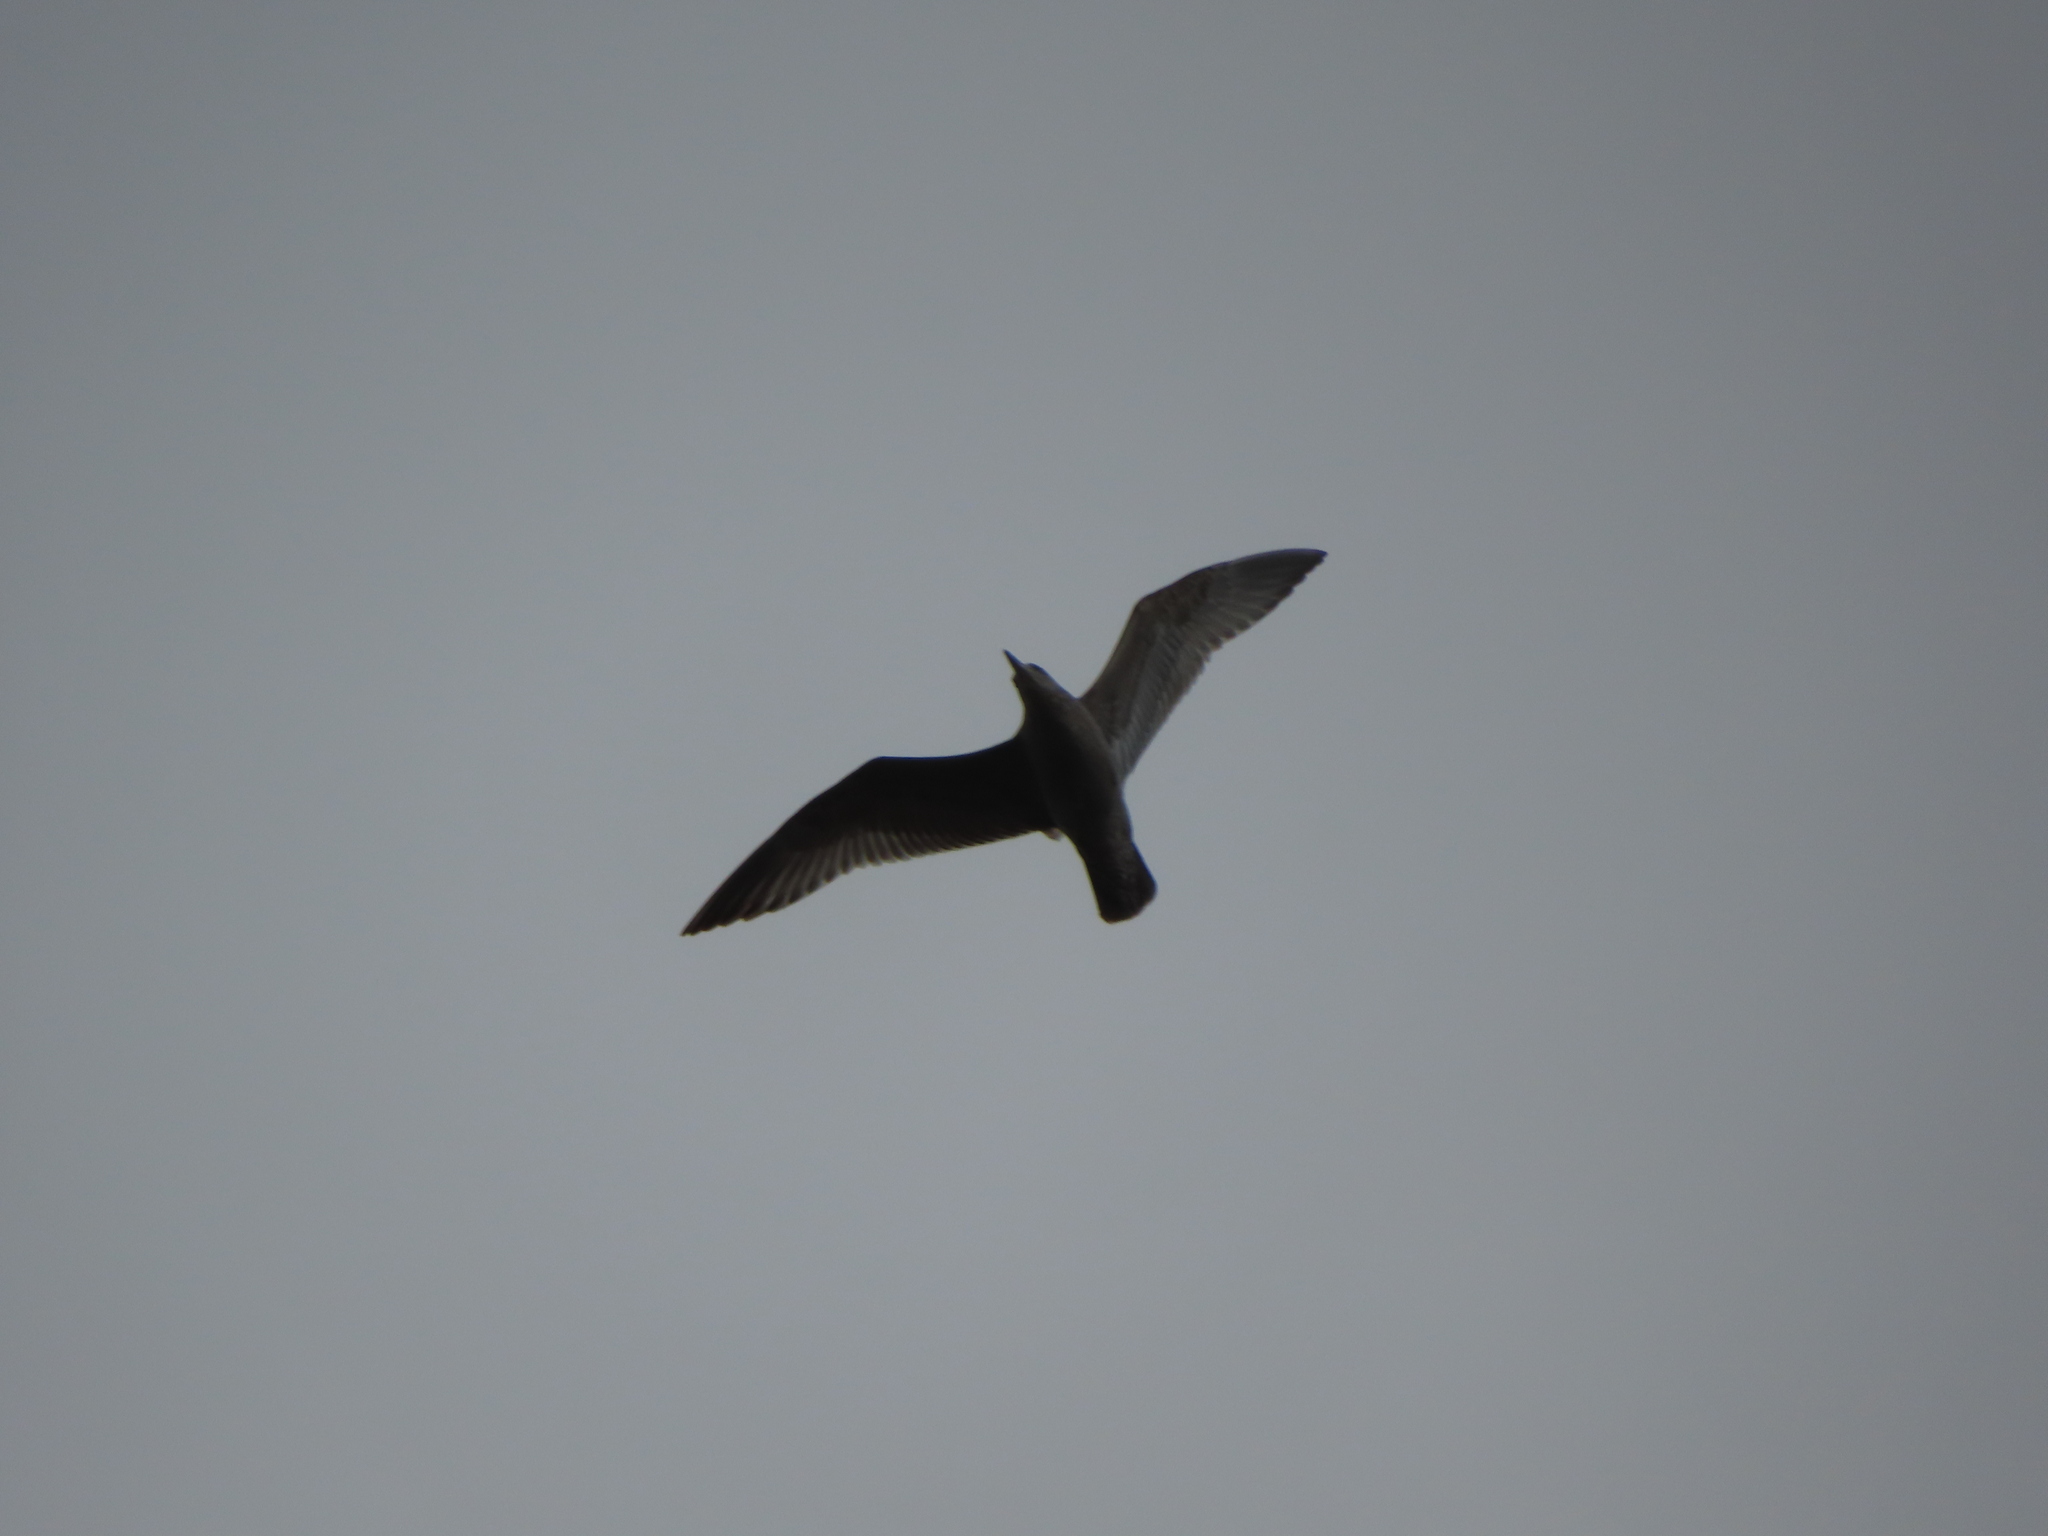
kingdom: Animalia
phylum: Chordata
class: Aves
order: Charadriiformes
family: Laridae
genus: Larus
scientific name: Larus argentatus
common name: Herring gull
